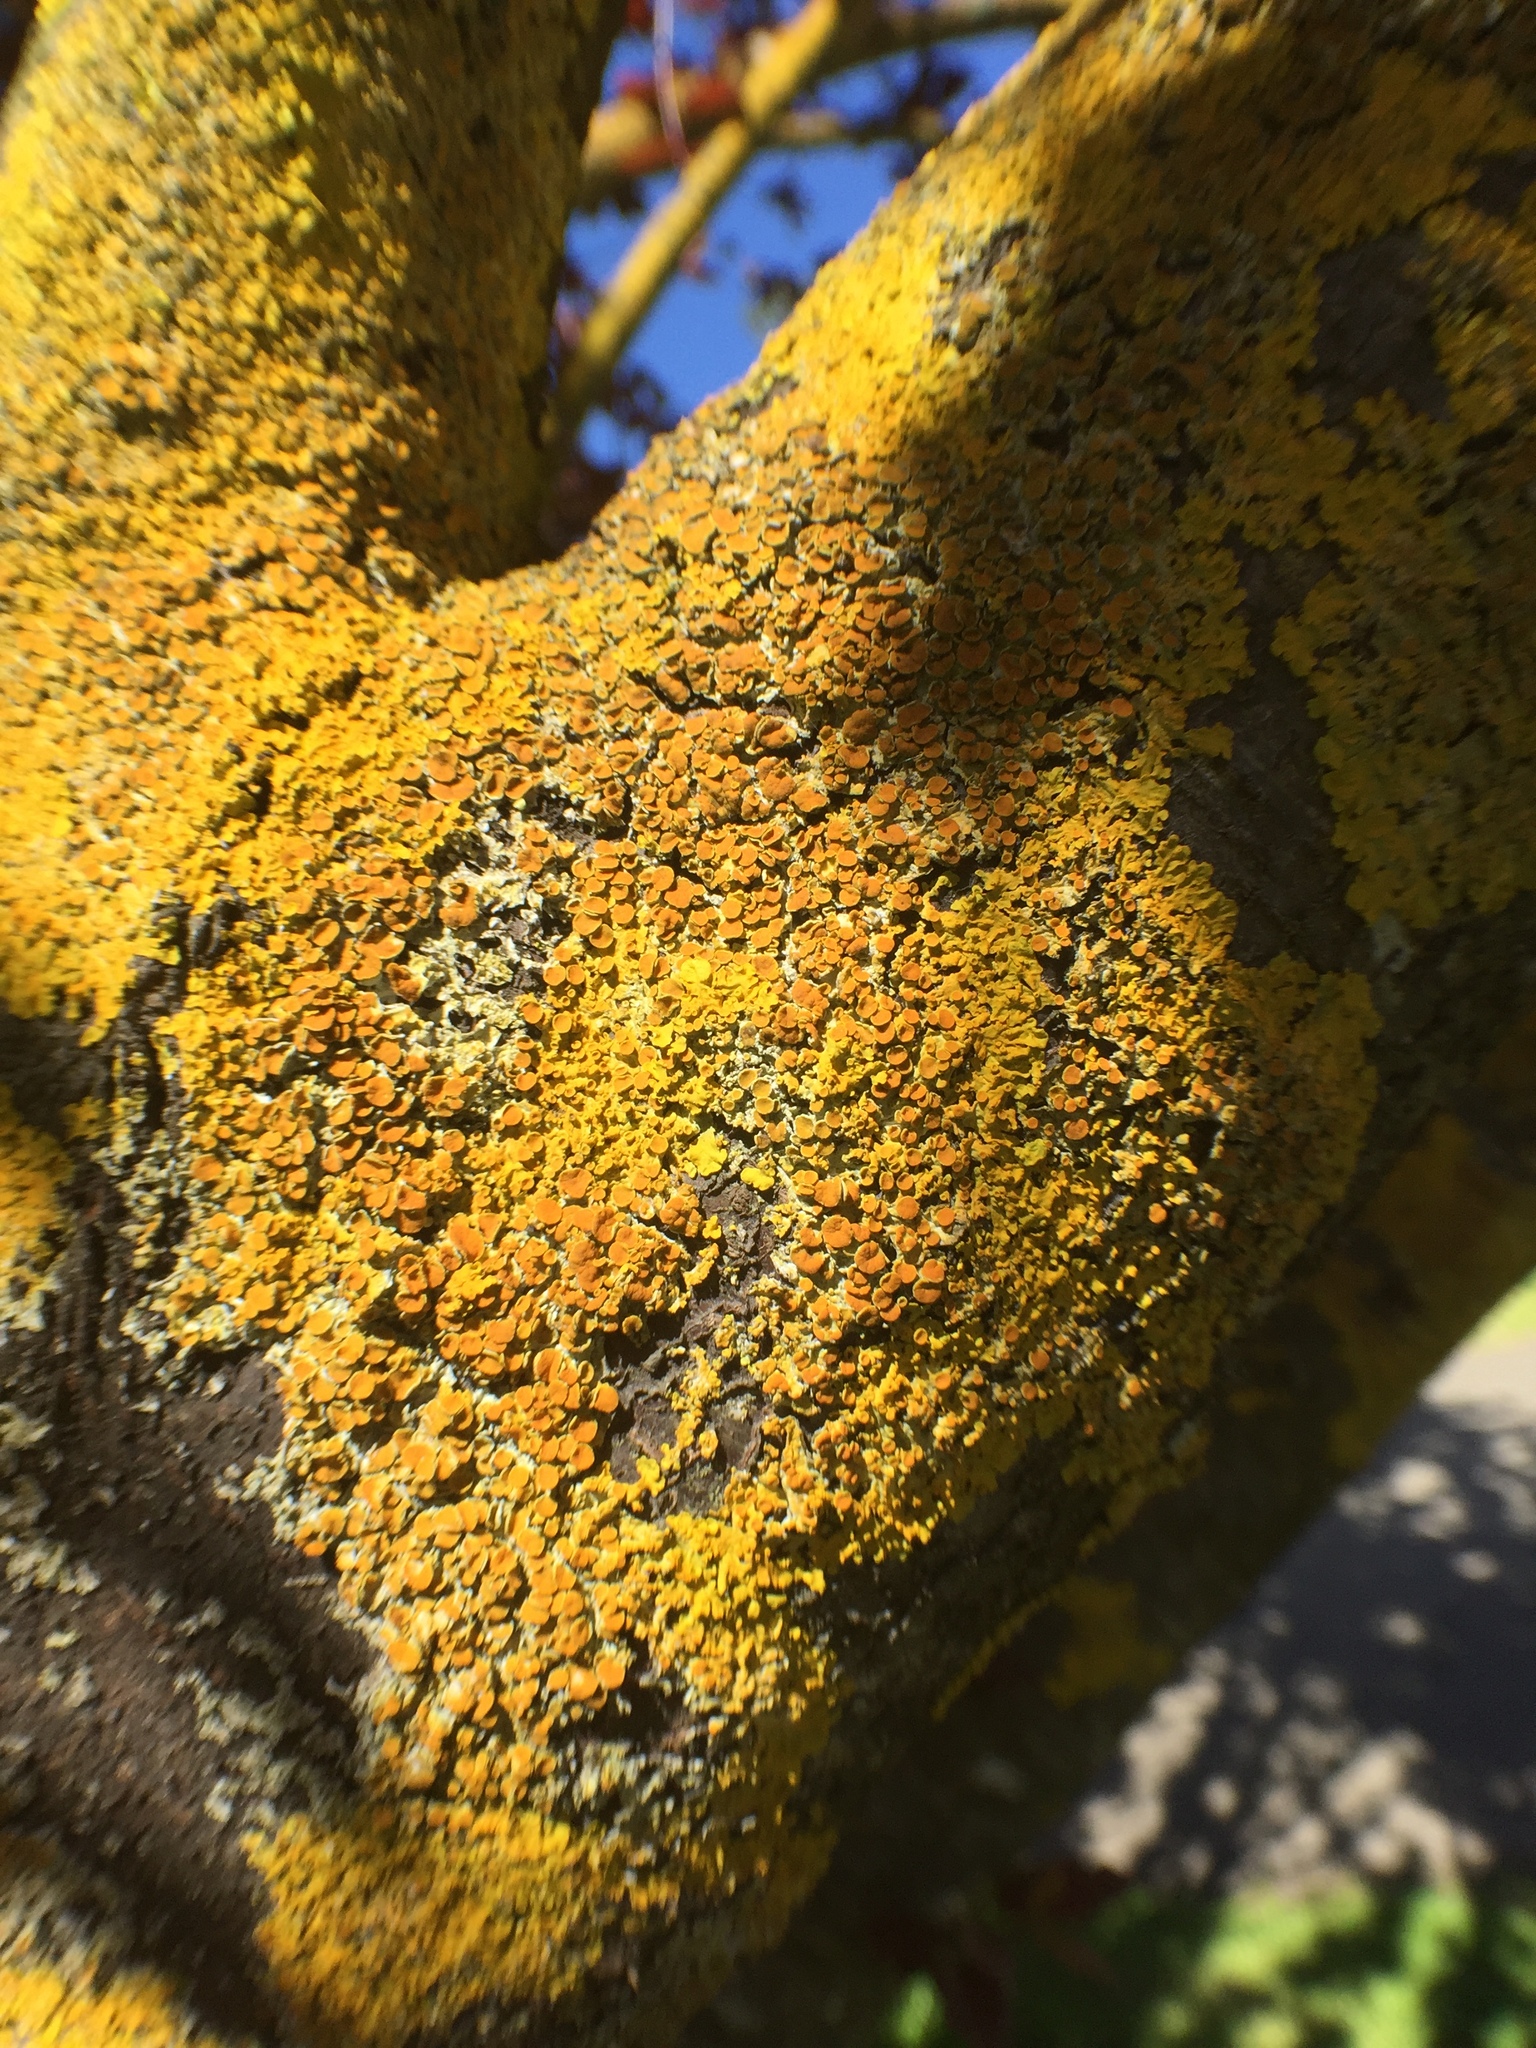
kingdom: Fungi
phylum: Ascomycota
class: Lecanoromycetes
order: Teloschistales
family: Teloschistaceae
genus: Xanthoria
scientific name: Xanthoria parietina
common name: Common orange lichen
